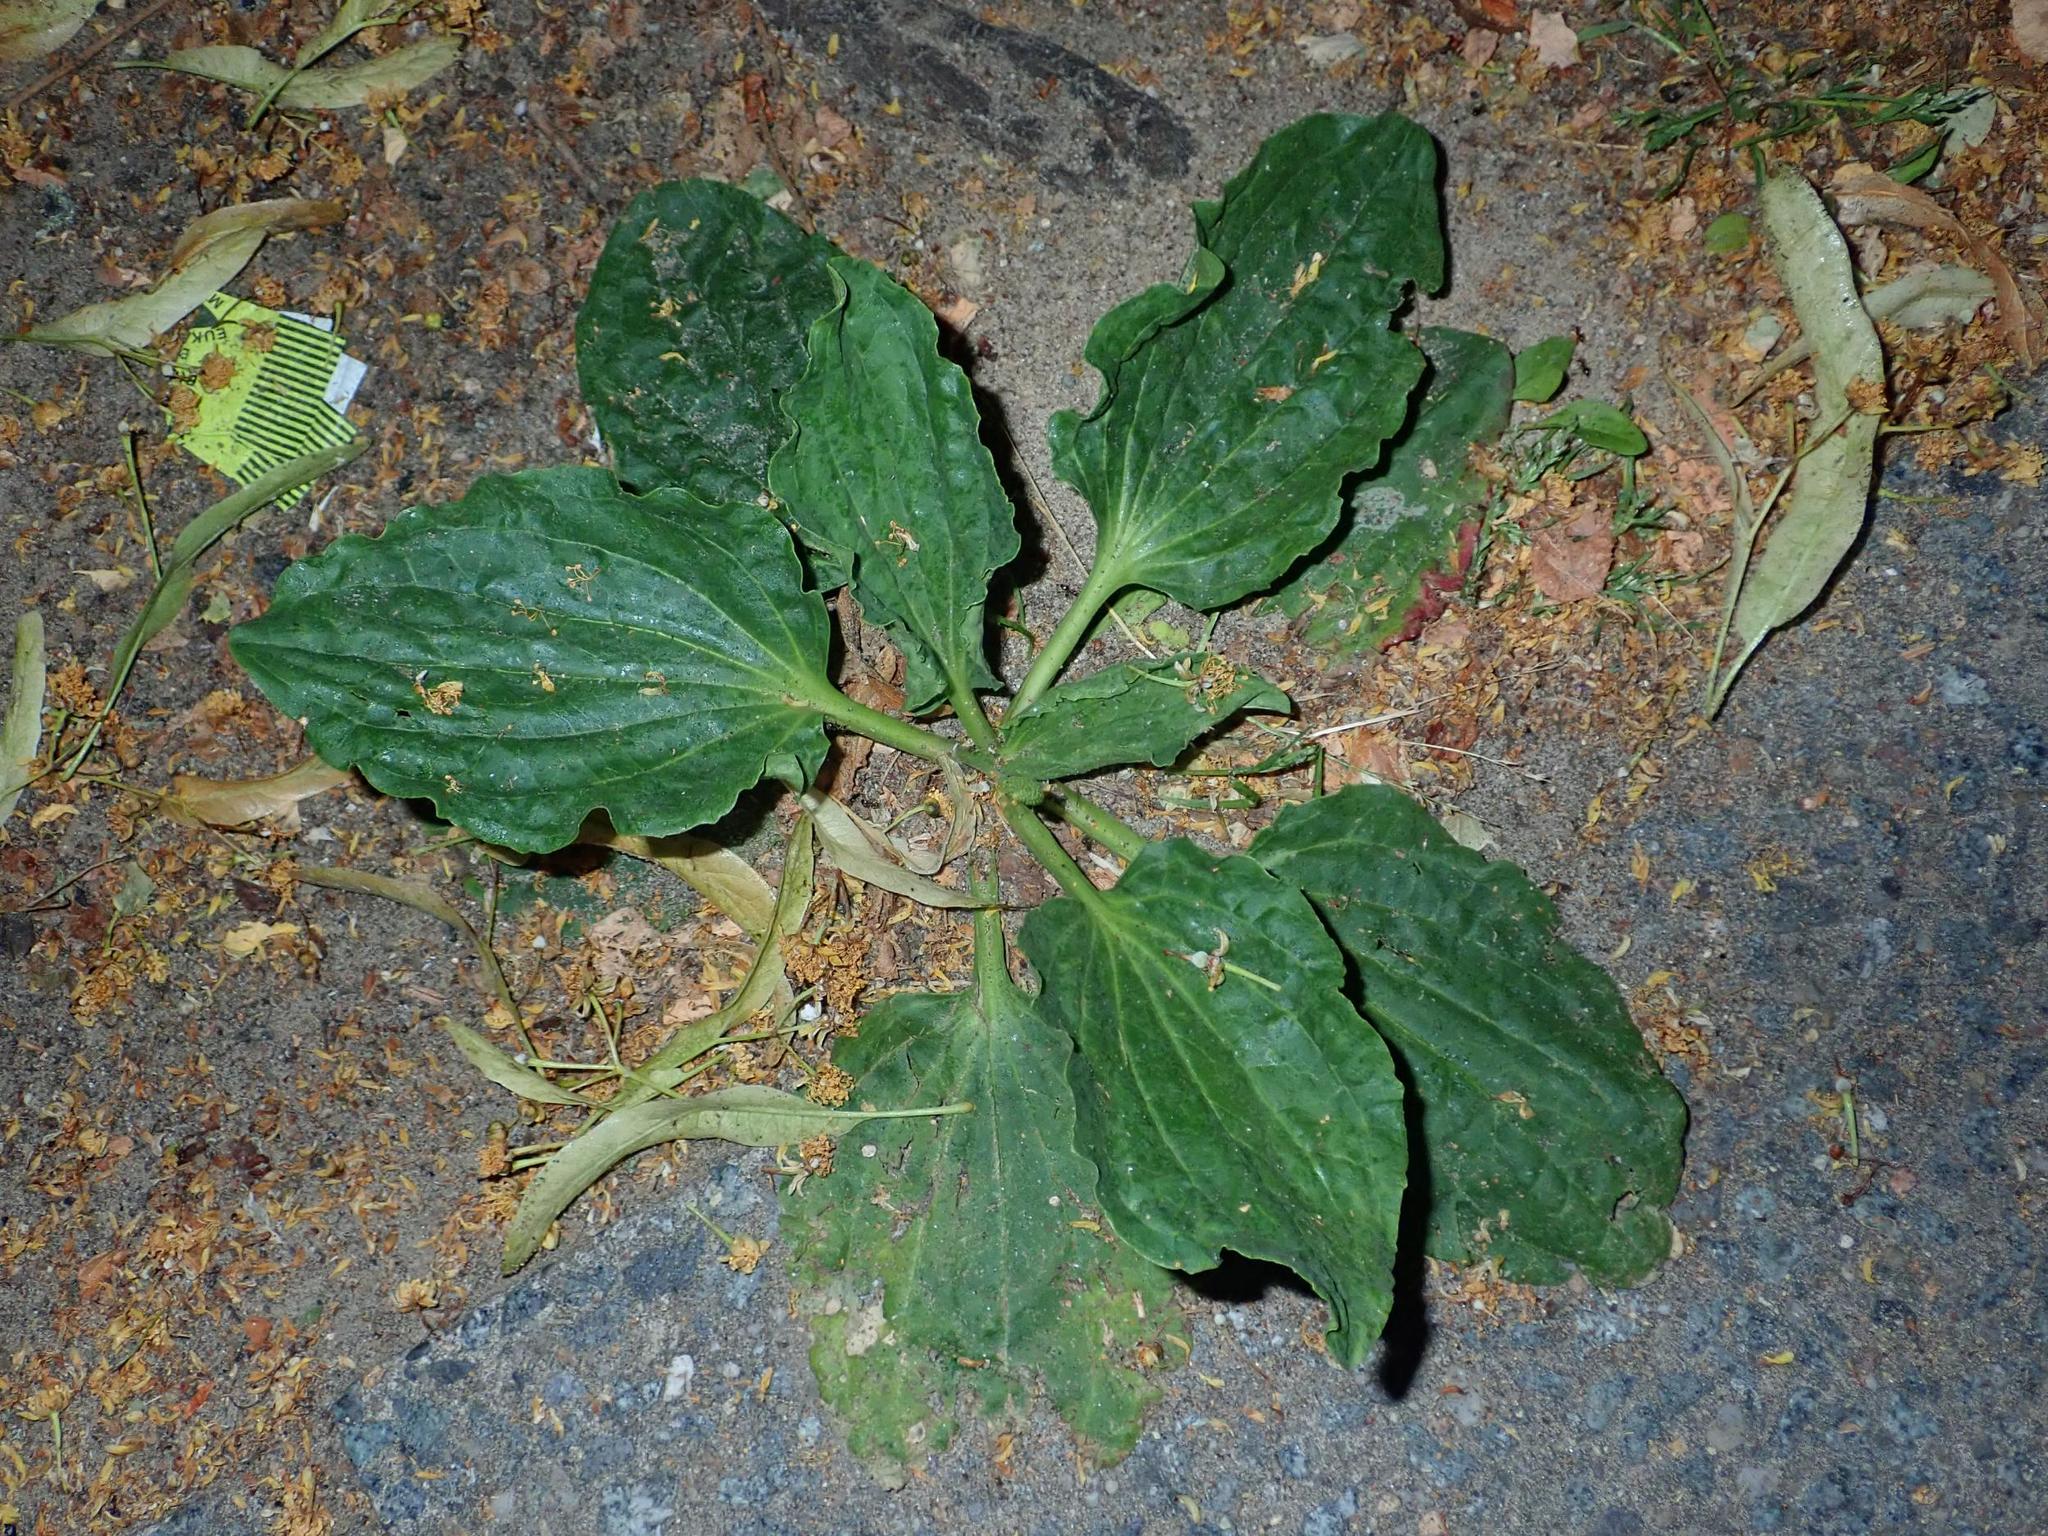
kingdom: Plantae
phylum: Tracheophyta
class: Magnoliopsida
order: Lamiales
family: Plantaginaceae
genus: Plantago
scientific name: Plantago major
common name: Common plantain
